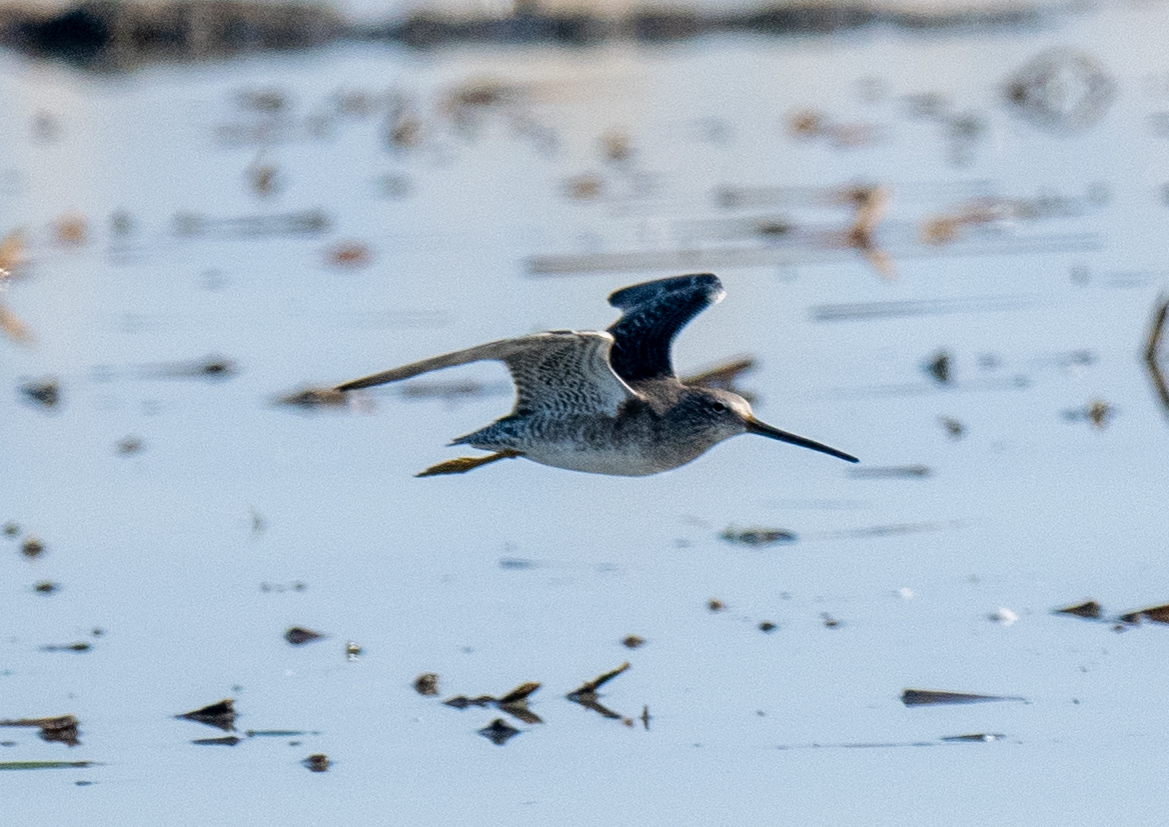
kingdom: Animalia
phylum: Chordata
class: Aves
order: Charadriiformes
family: Scolopacidae
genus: Limnodromus
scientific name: Limnodromus scolopaceus
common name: Long-billed dowitcher
